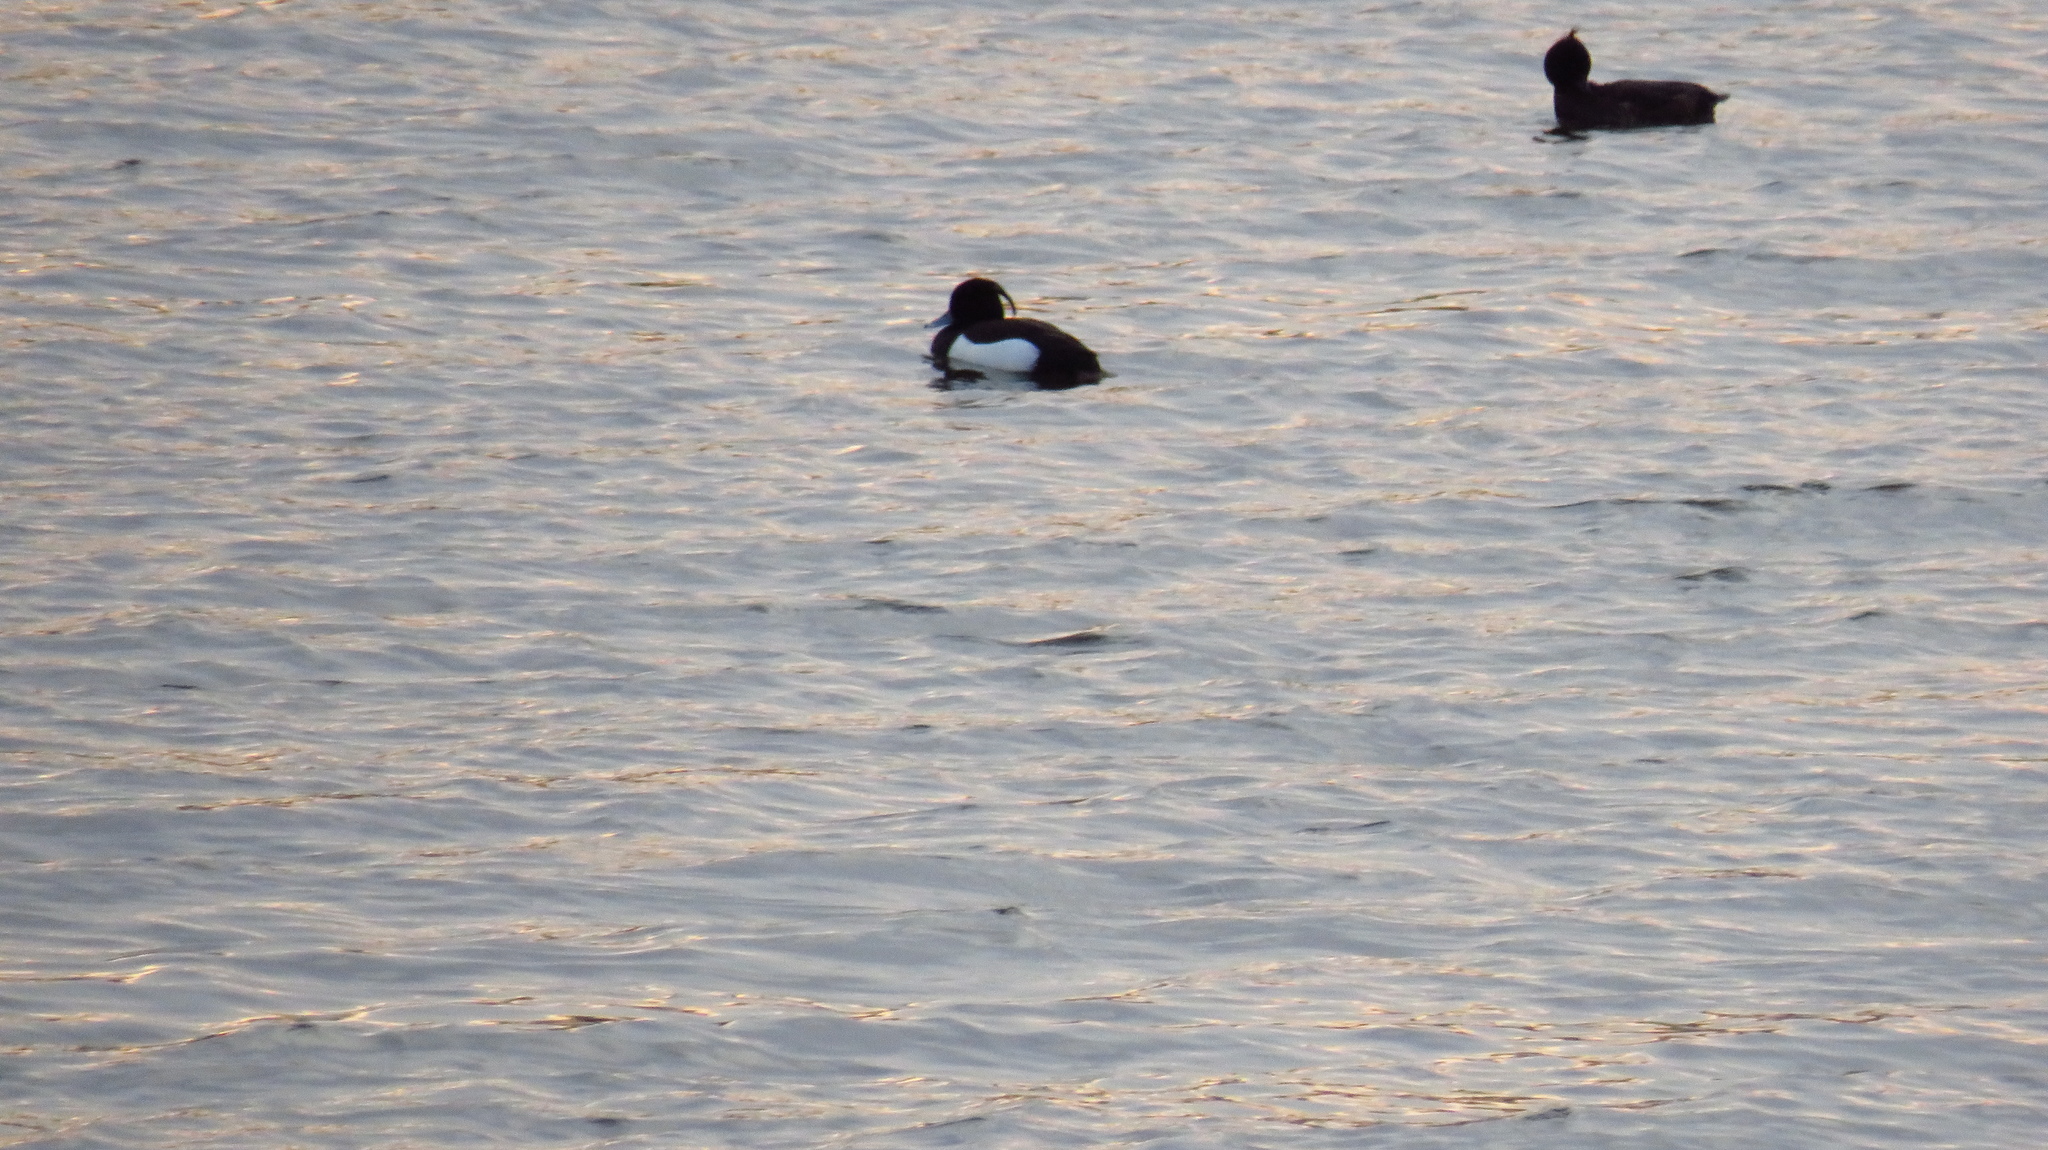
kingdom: Animalia
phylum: Chordata
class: Aves
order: Anseriformes
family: Anatidae
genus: Aythya
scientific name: Aythya fuligula
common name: Tufted duck
